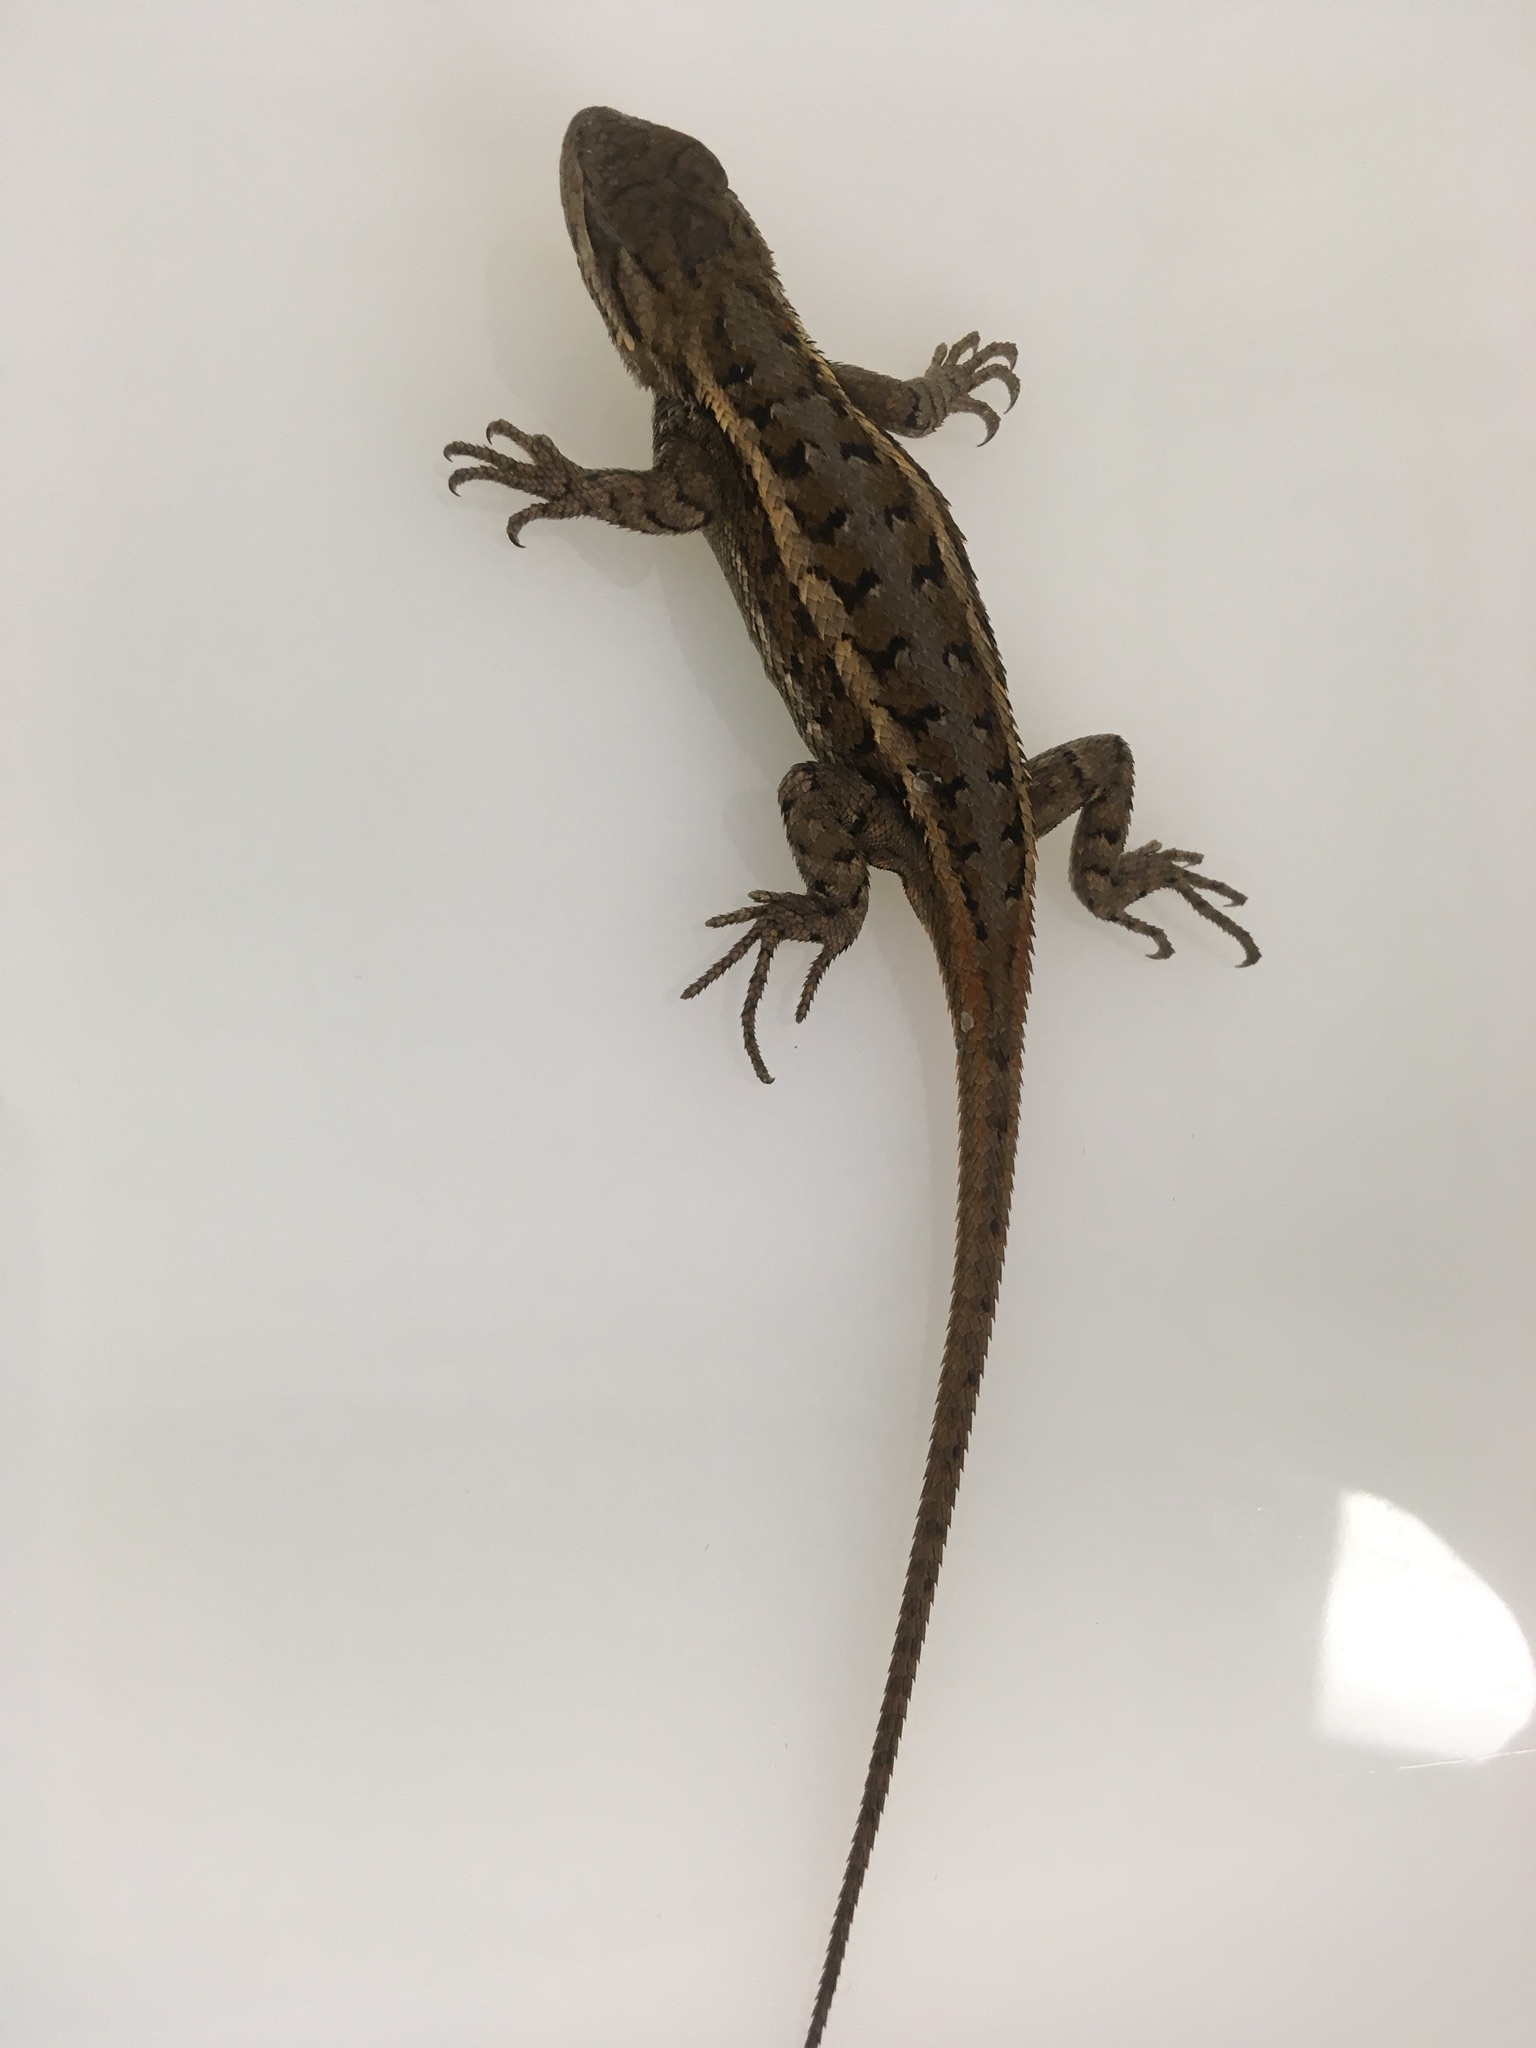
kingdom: Animalia
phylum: Chordata
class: Squamata
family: Phrynosomatidae
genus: Sceloporus
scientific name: Sceloporus consobrinus
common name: Southern prairie lizard
